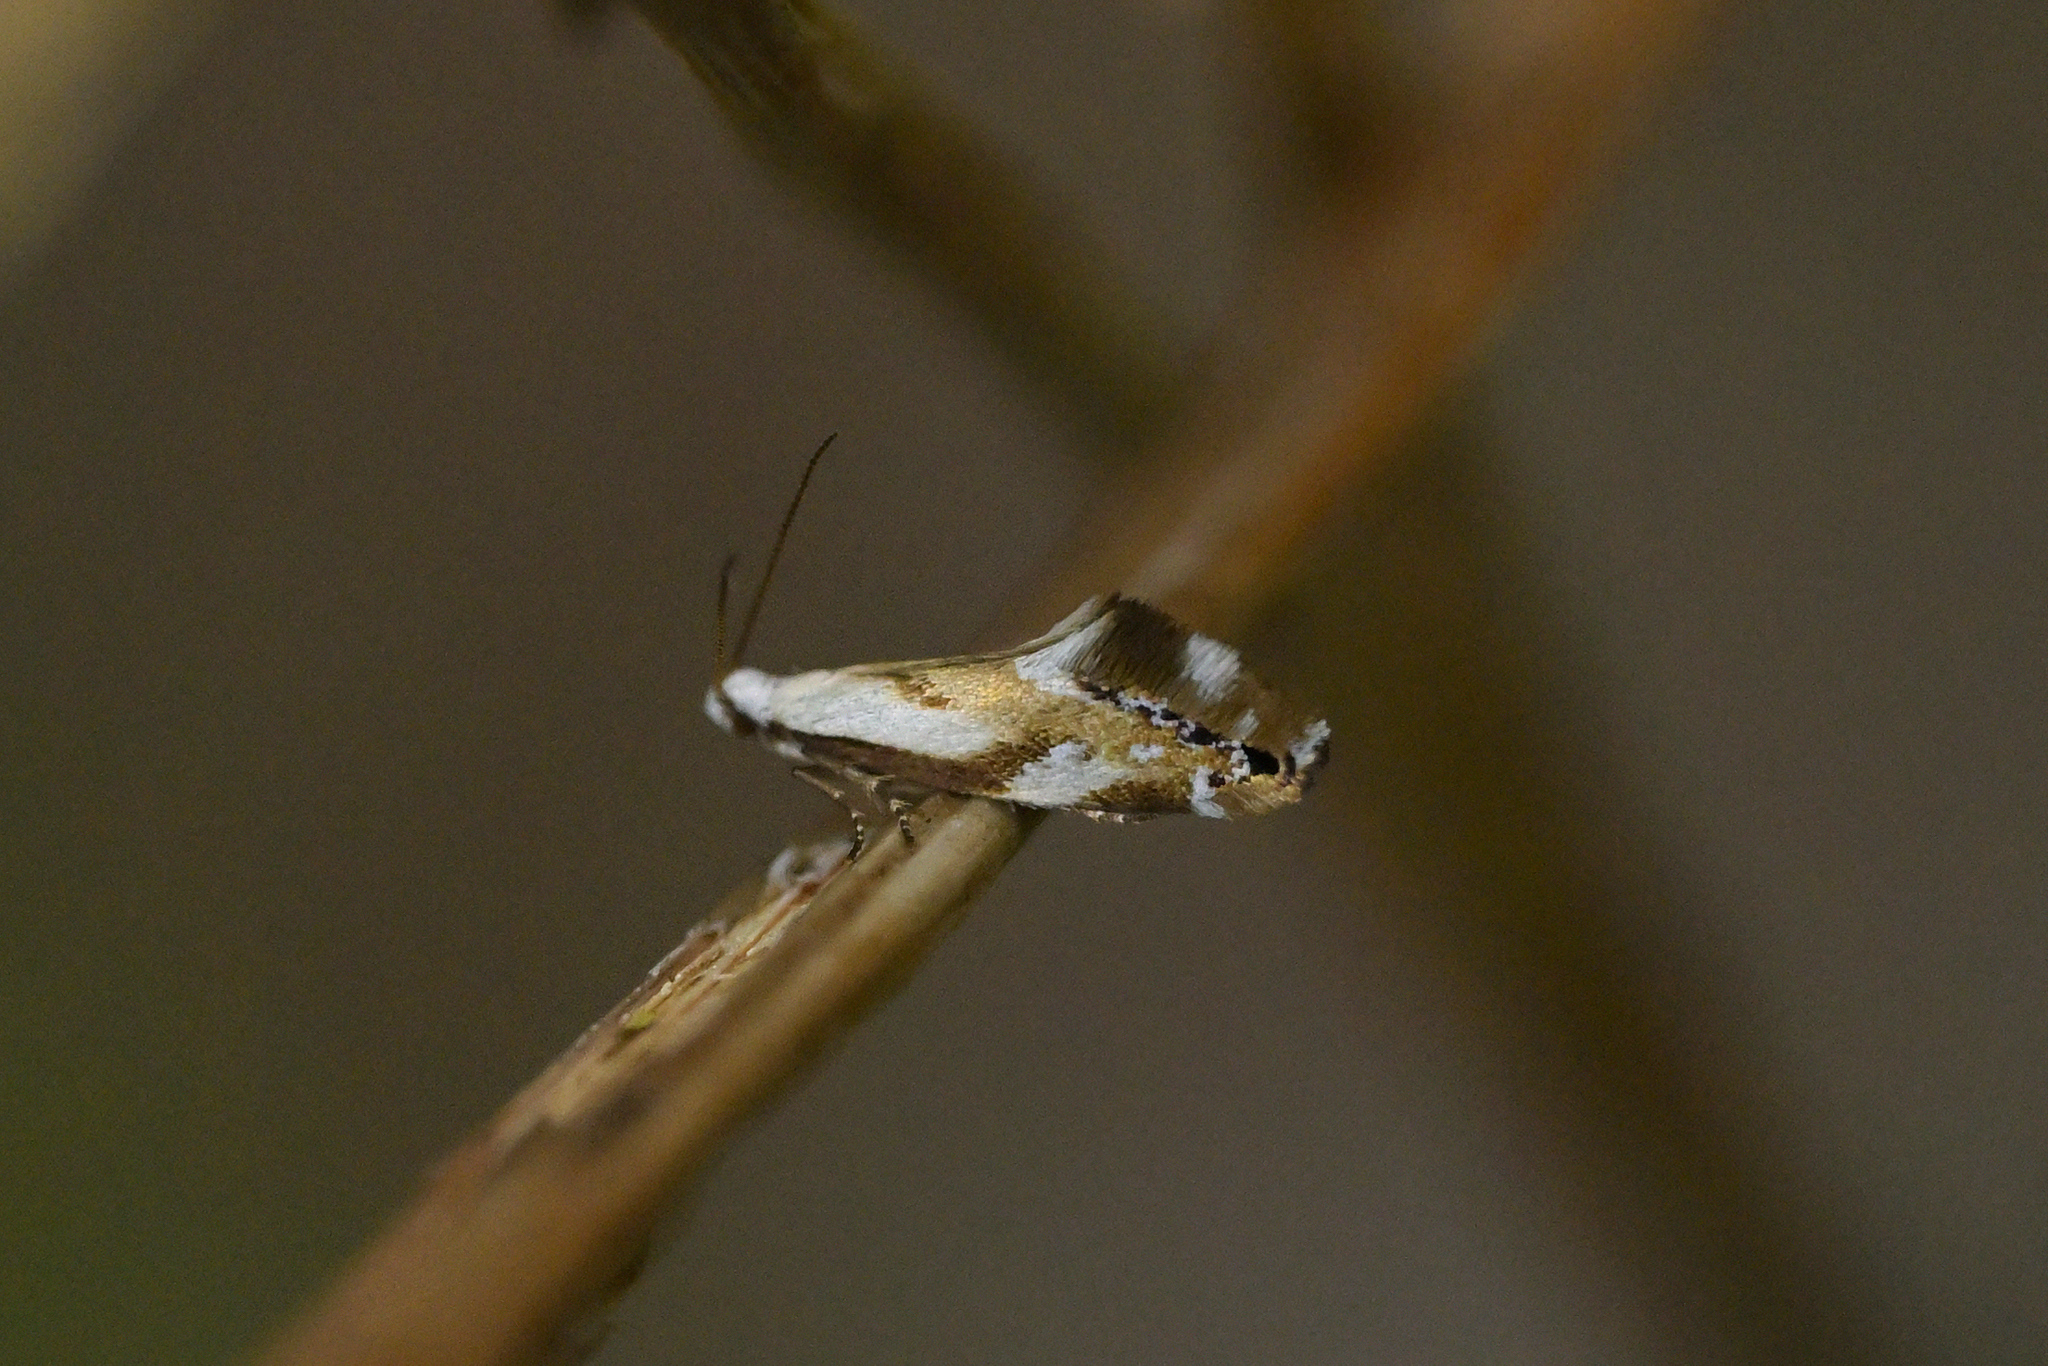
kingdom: Animalia
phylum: Arthropoda
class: Insecta
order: Lepidoptera
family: Mnesarchaeidae
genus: Mnesarchella
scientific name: Mnesarchella acuta
